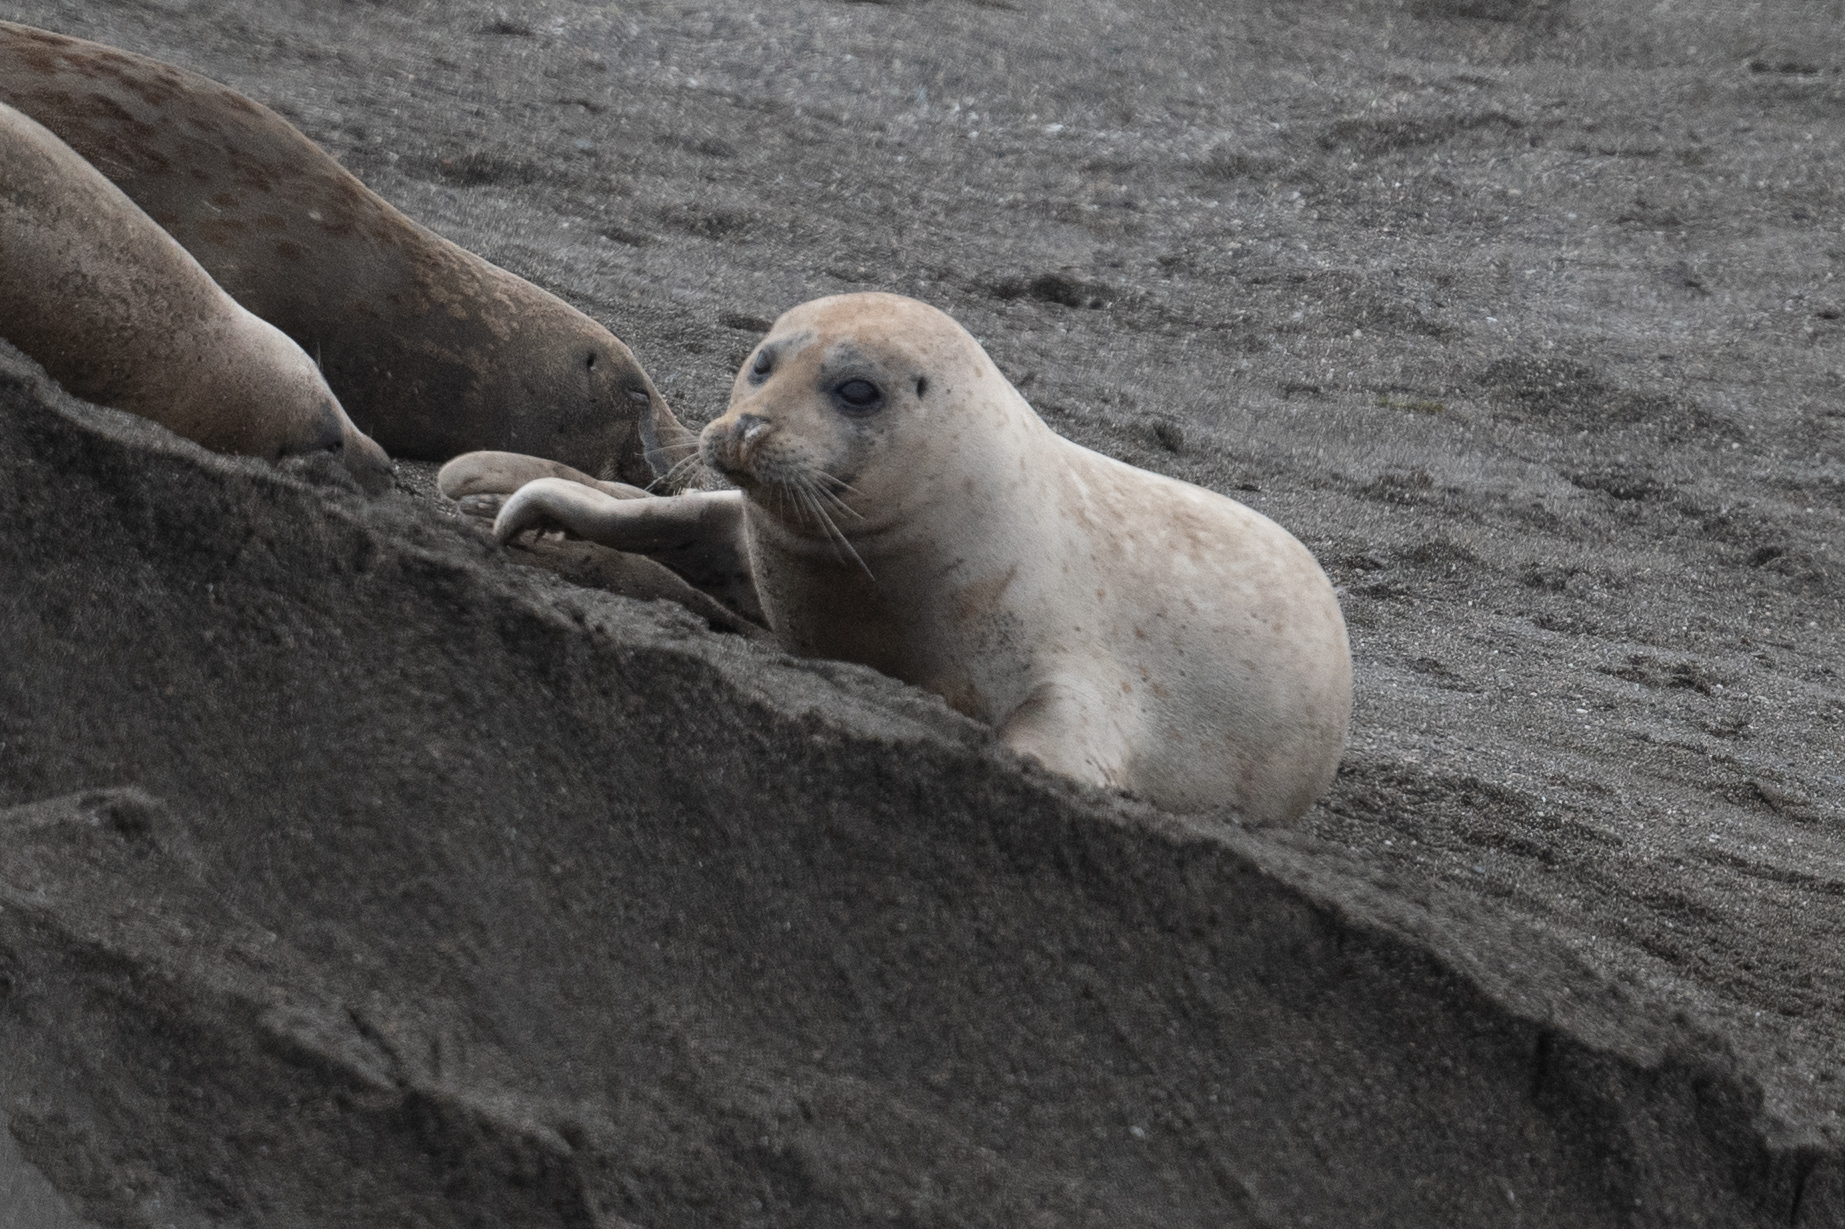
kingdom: Animalia
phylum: Chordata
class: Mammalia
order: Carnivora
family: Phocidae
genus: Phoca
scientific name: Phoca vitulina
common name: Harbor seal
